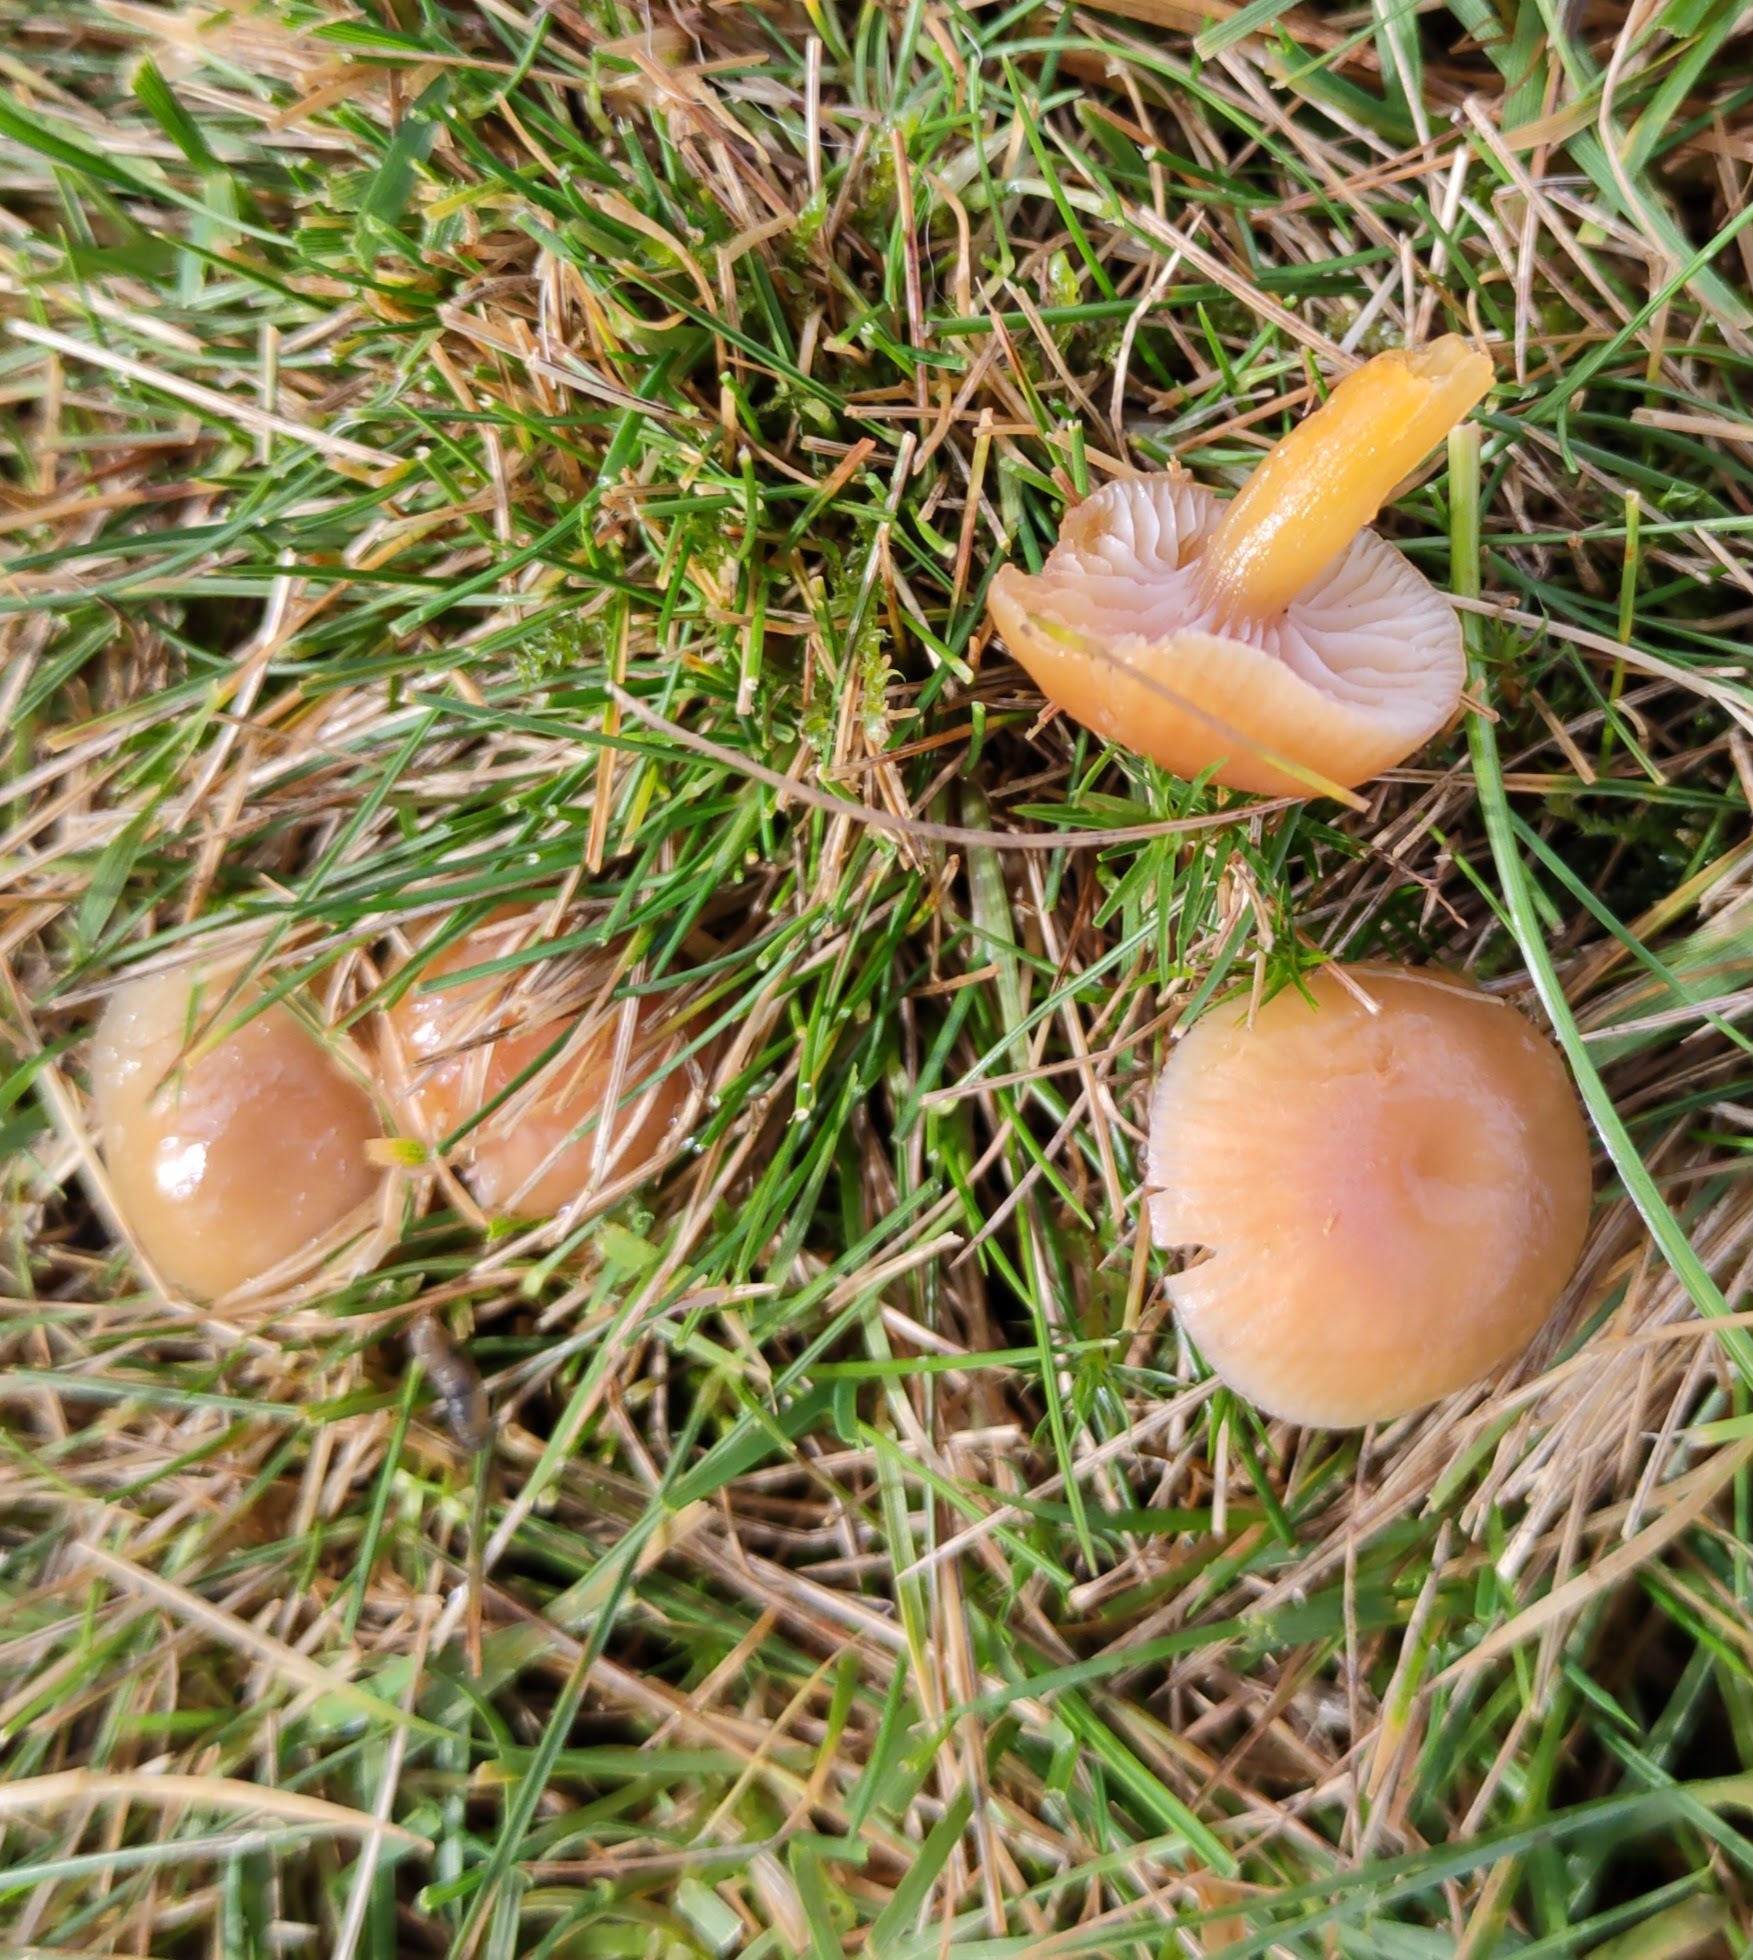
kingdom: Fungi
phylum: Basidiomycota
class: Agaricomycetes
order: Agaricales
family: Hygrophoraceae
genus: Gliophorus
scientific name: Gliophorus laetus
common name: Heath waxcap
